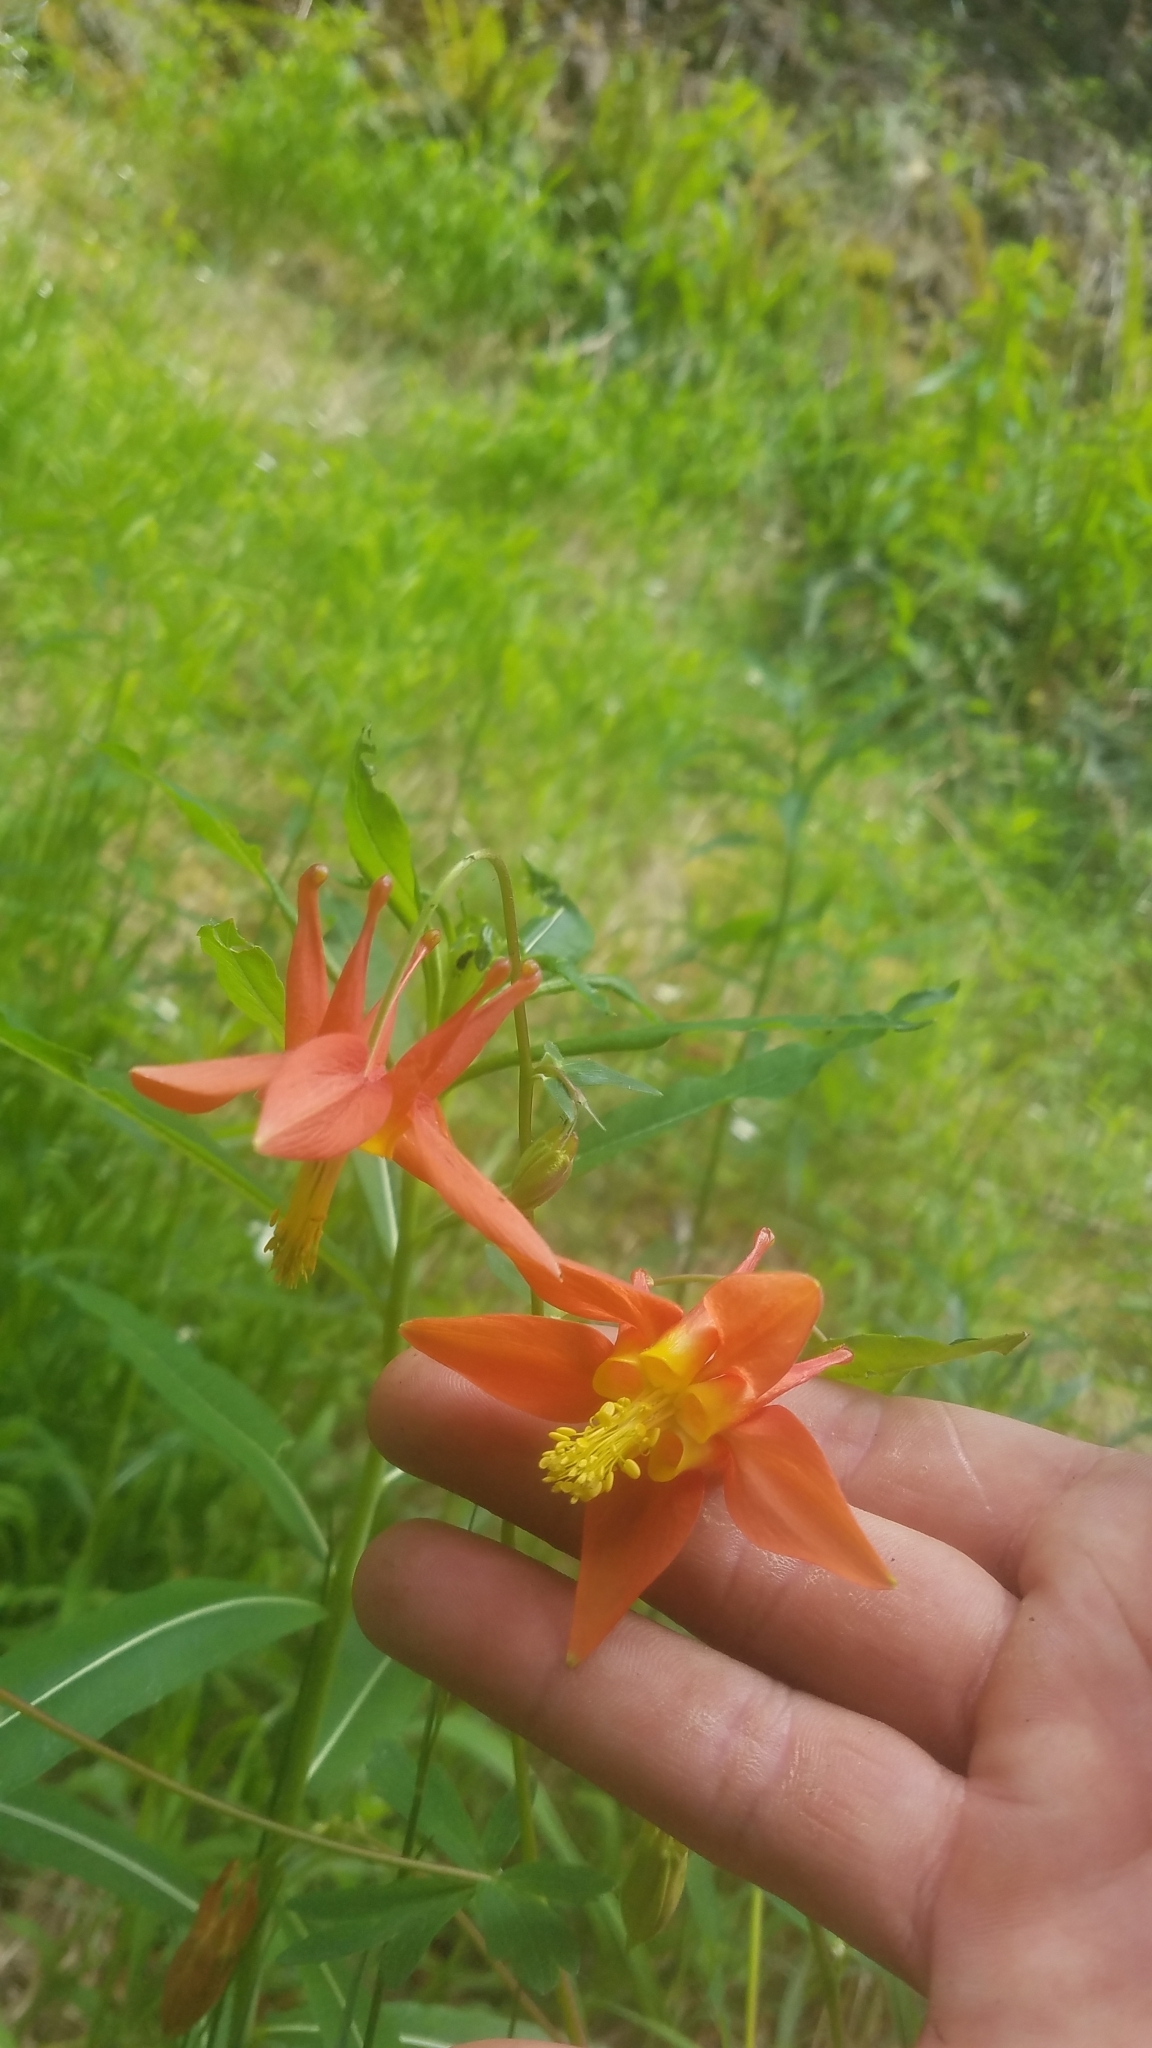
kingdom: Plantae
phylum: Tracheophyta
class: Magnoliopsida
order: Ranunculales
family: Ranunculaceae
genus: Aquilegia
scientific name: Aquilegia formosa
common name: Sitka columbine
